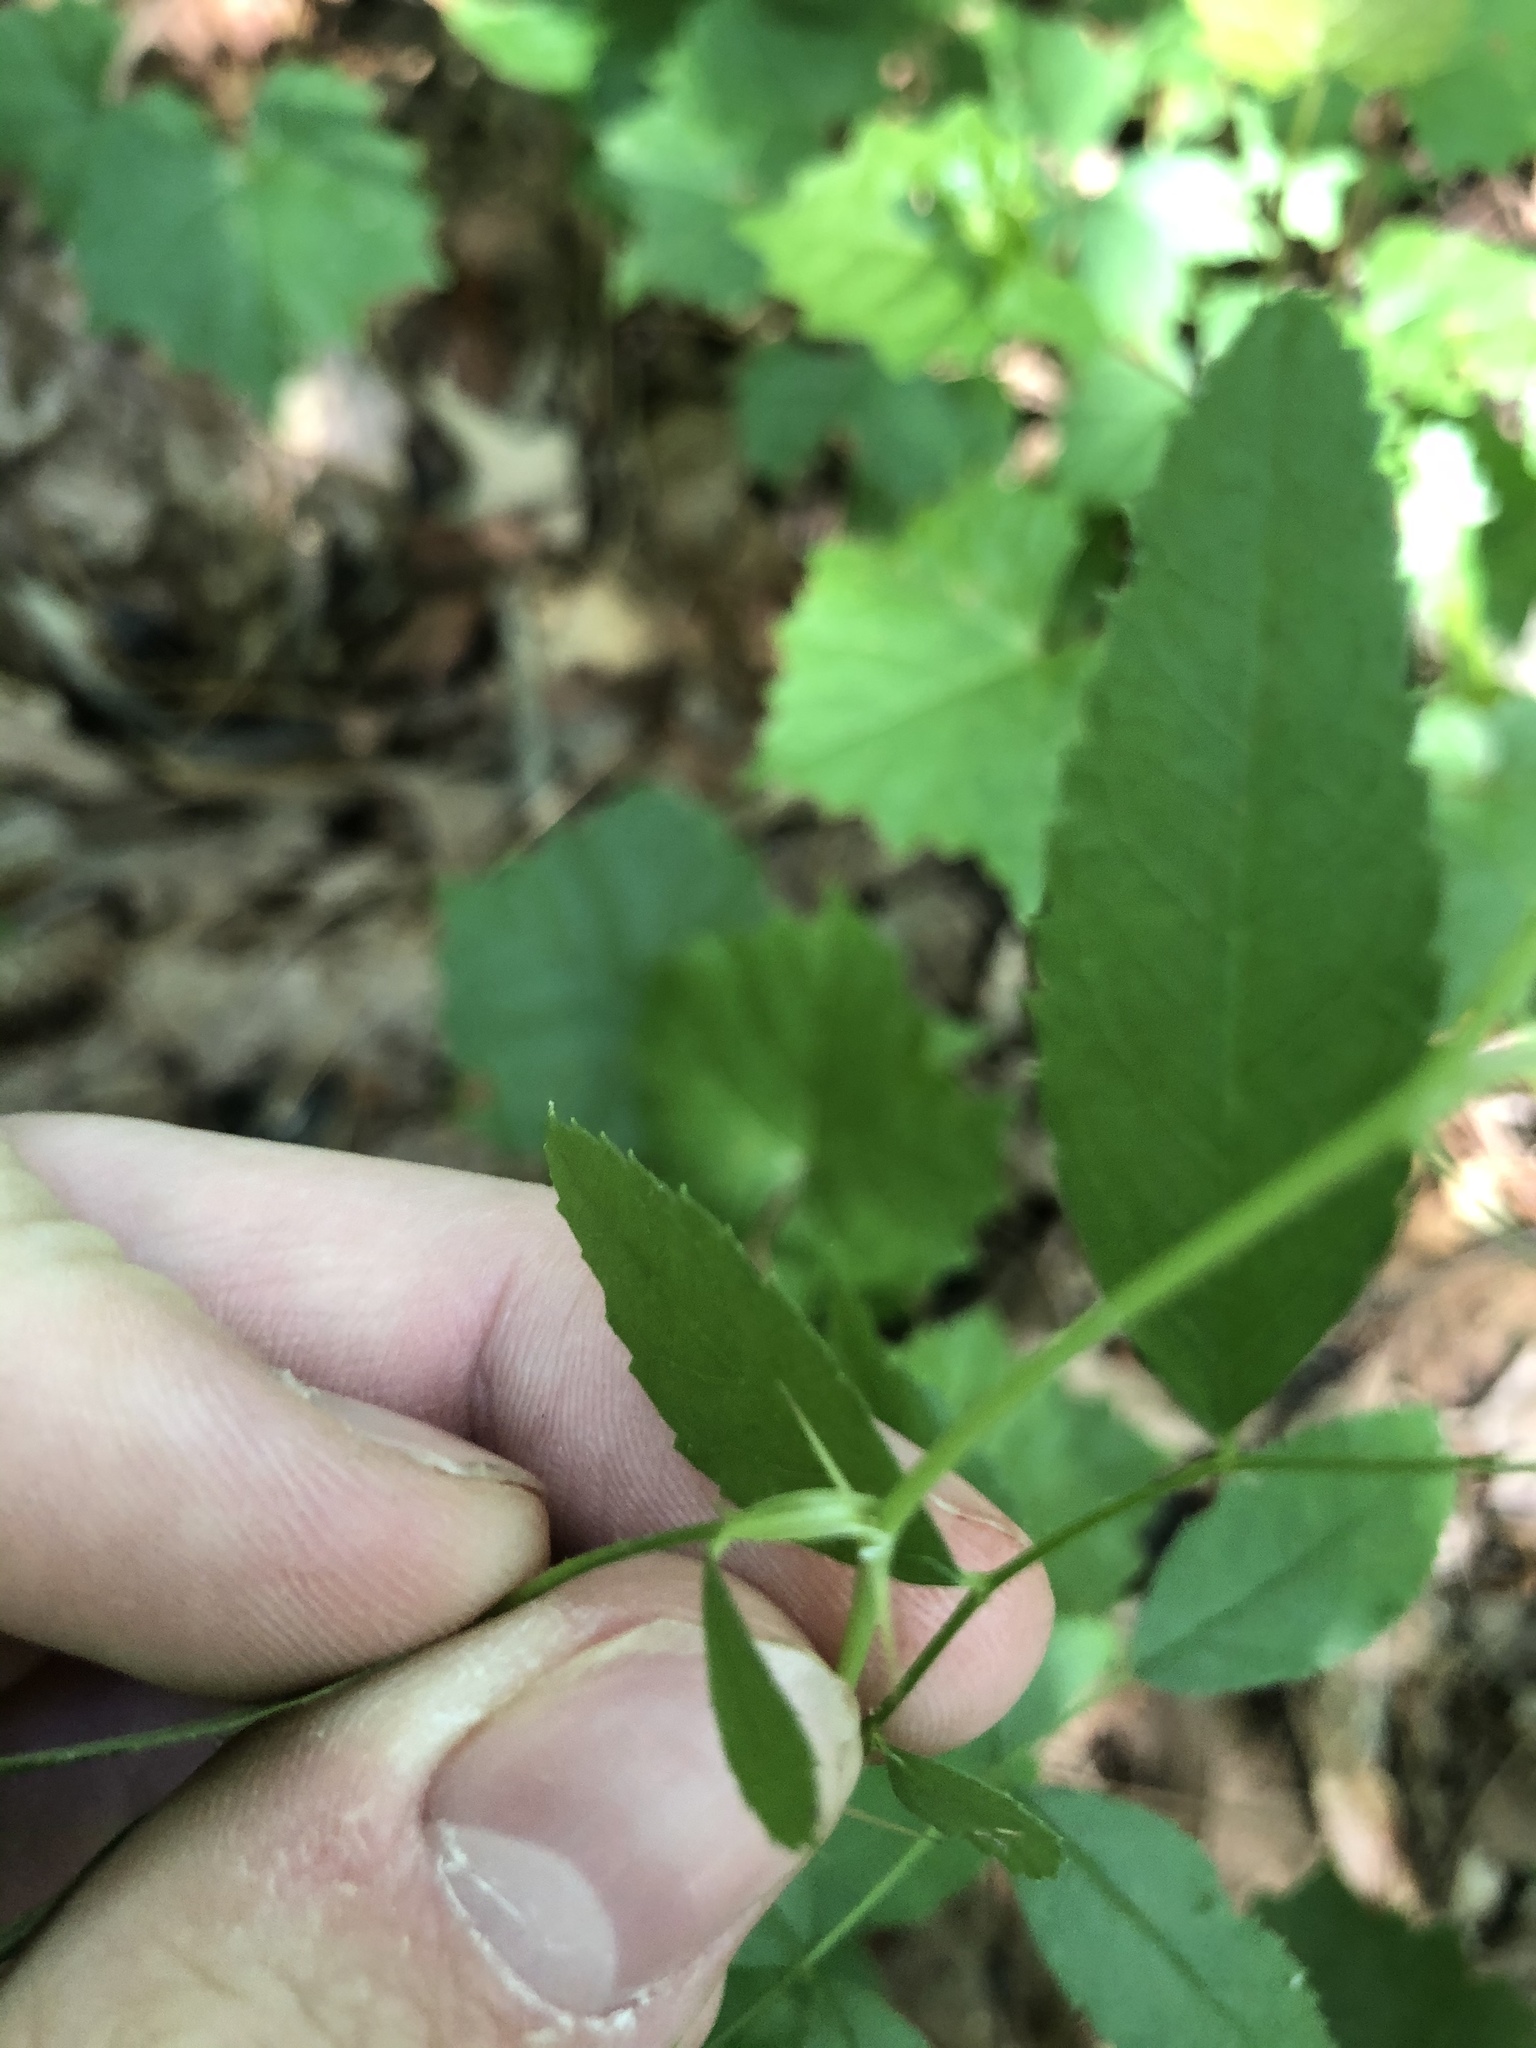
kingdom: Plantae
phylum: Tracheophyta
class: Magnoliopsida
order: Rosales
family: Rosaceae
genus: Rosa
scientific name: Rosa carolina
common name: Pasture rose
